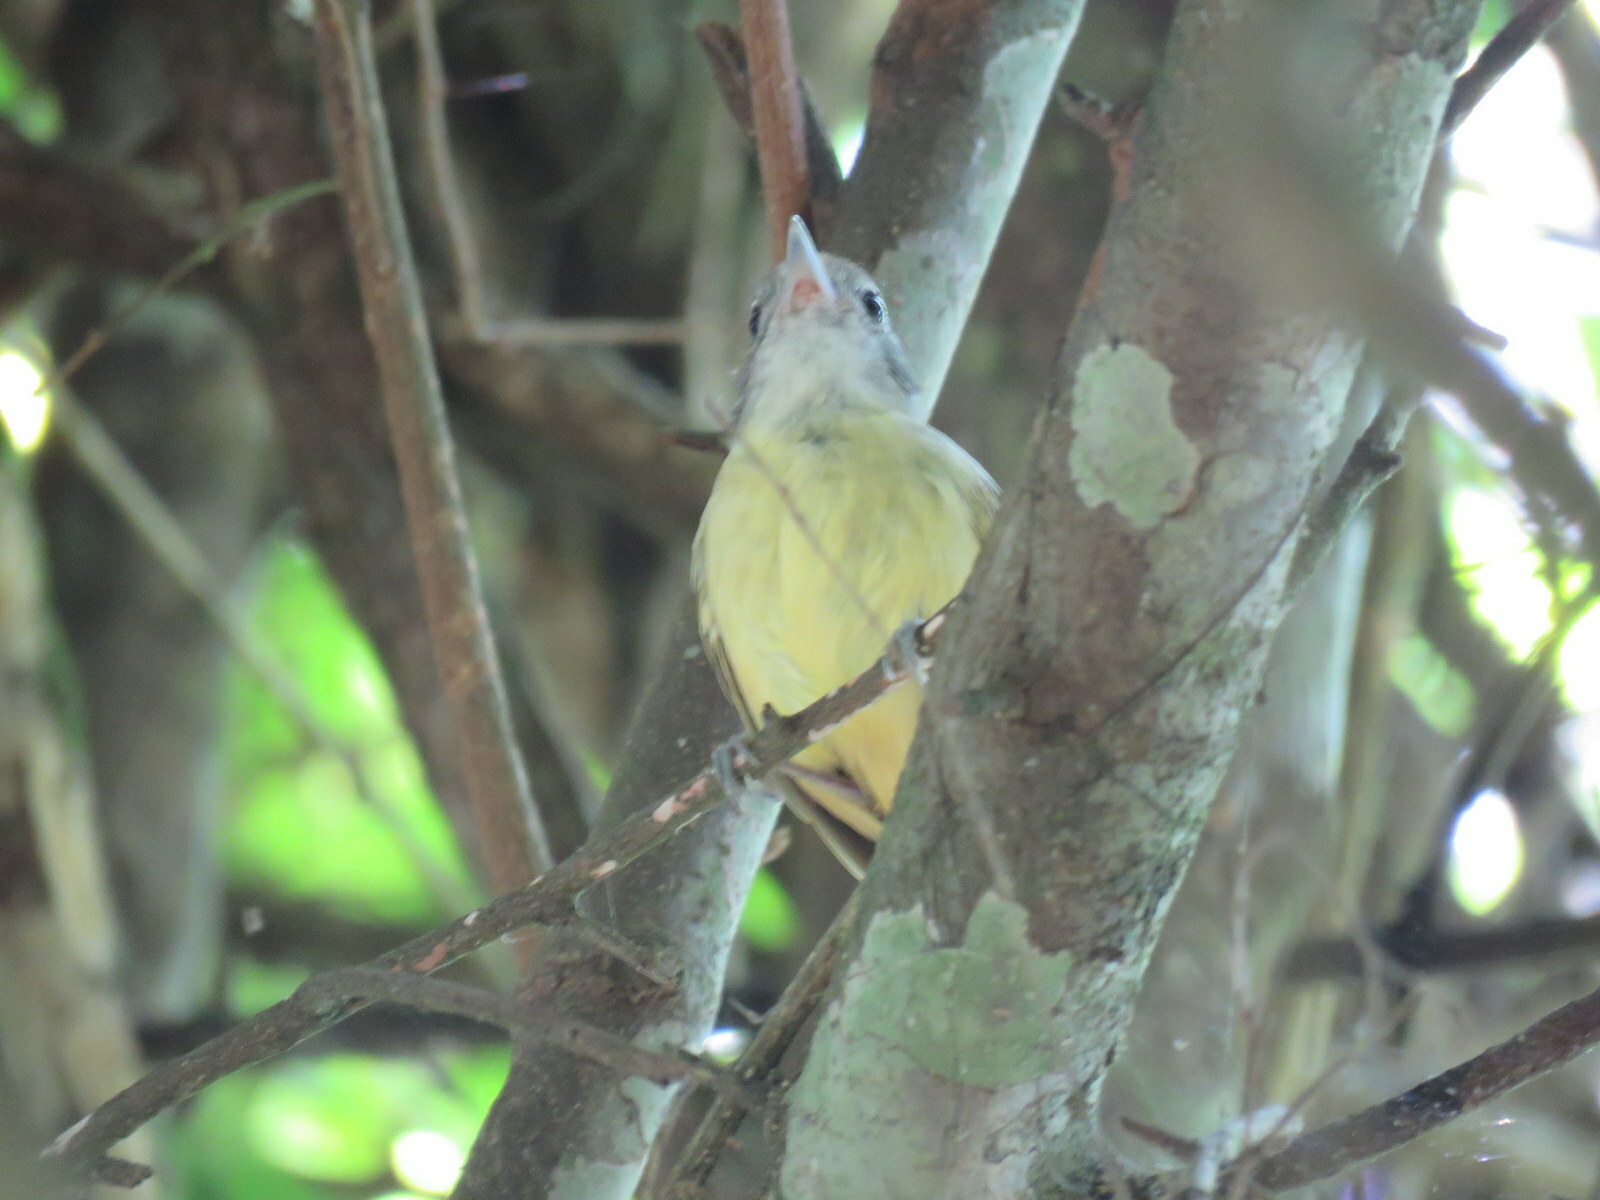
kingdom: Animalia
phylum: Chordata
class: Aves
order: Passeriformes
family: Thamnophilidae
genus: Dysithamnus
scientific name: Dysithamnus mentalis
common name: Plain antvireo
